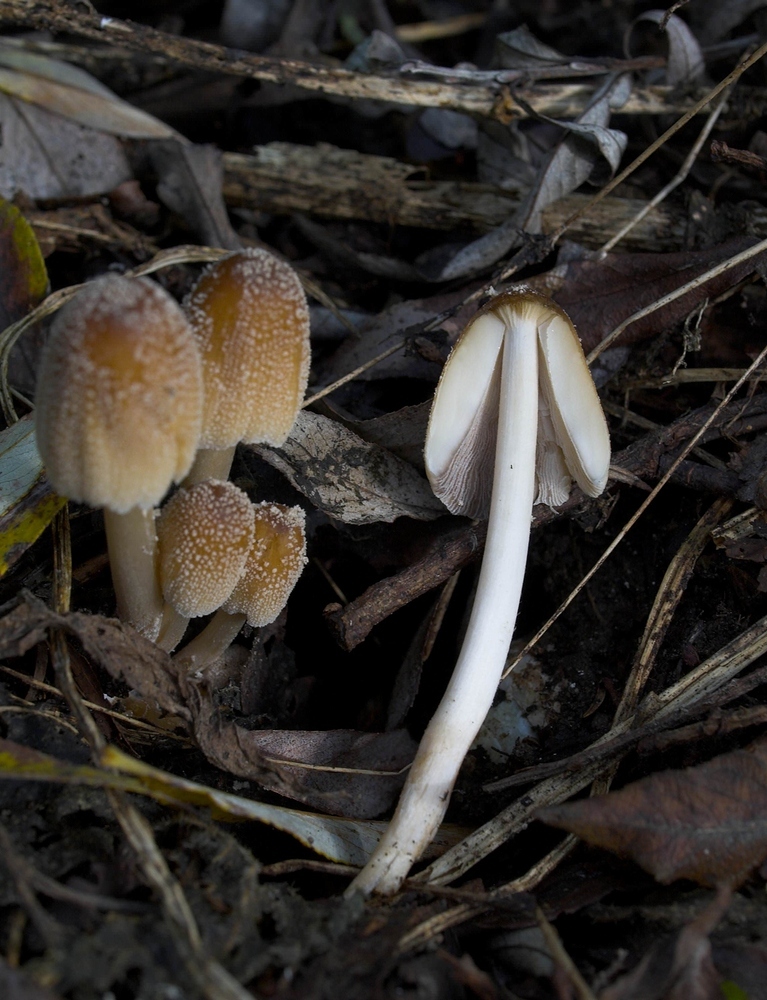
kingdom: Fungi
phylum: Basidiomycota
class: Agaricomycetes
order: Agaricales
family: Psathyrellaceae
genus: Coprinellus
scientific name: Coprinellus micaceus
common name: Glistening ink-cap
